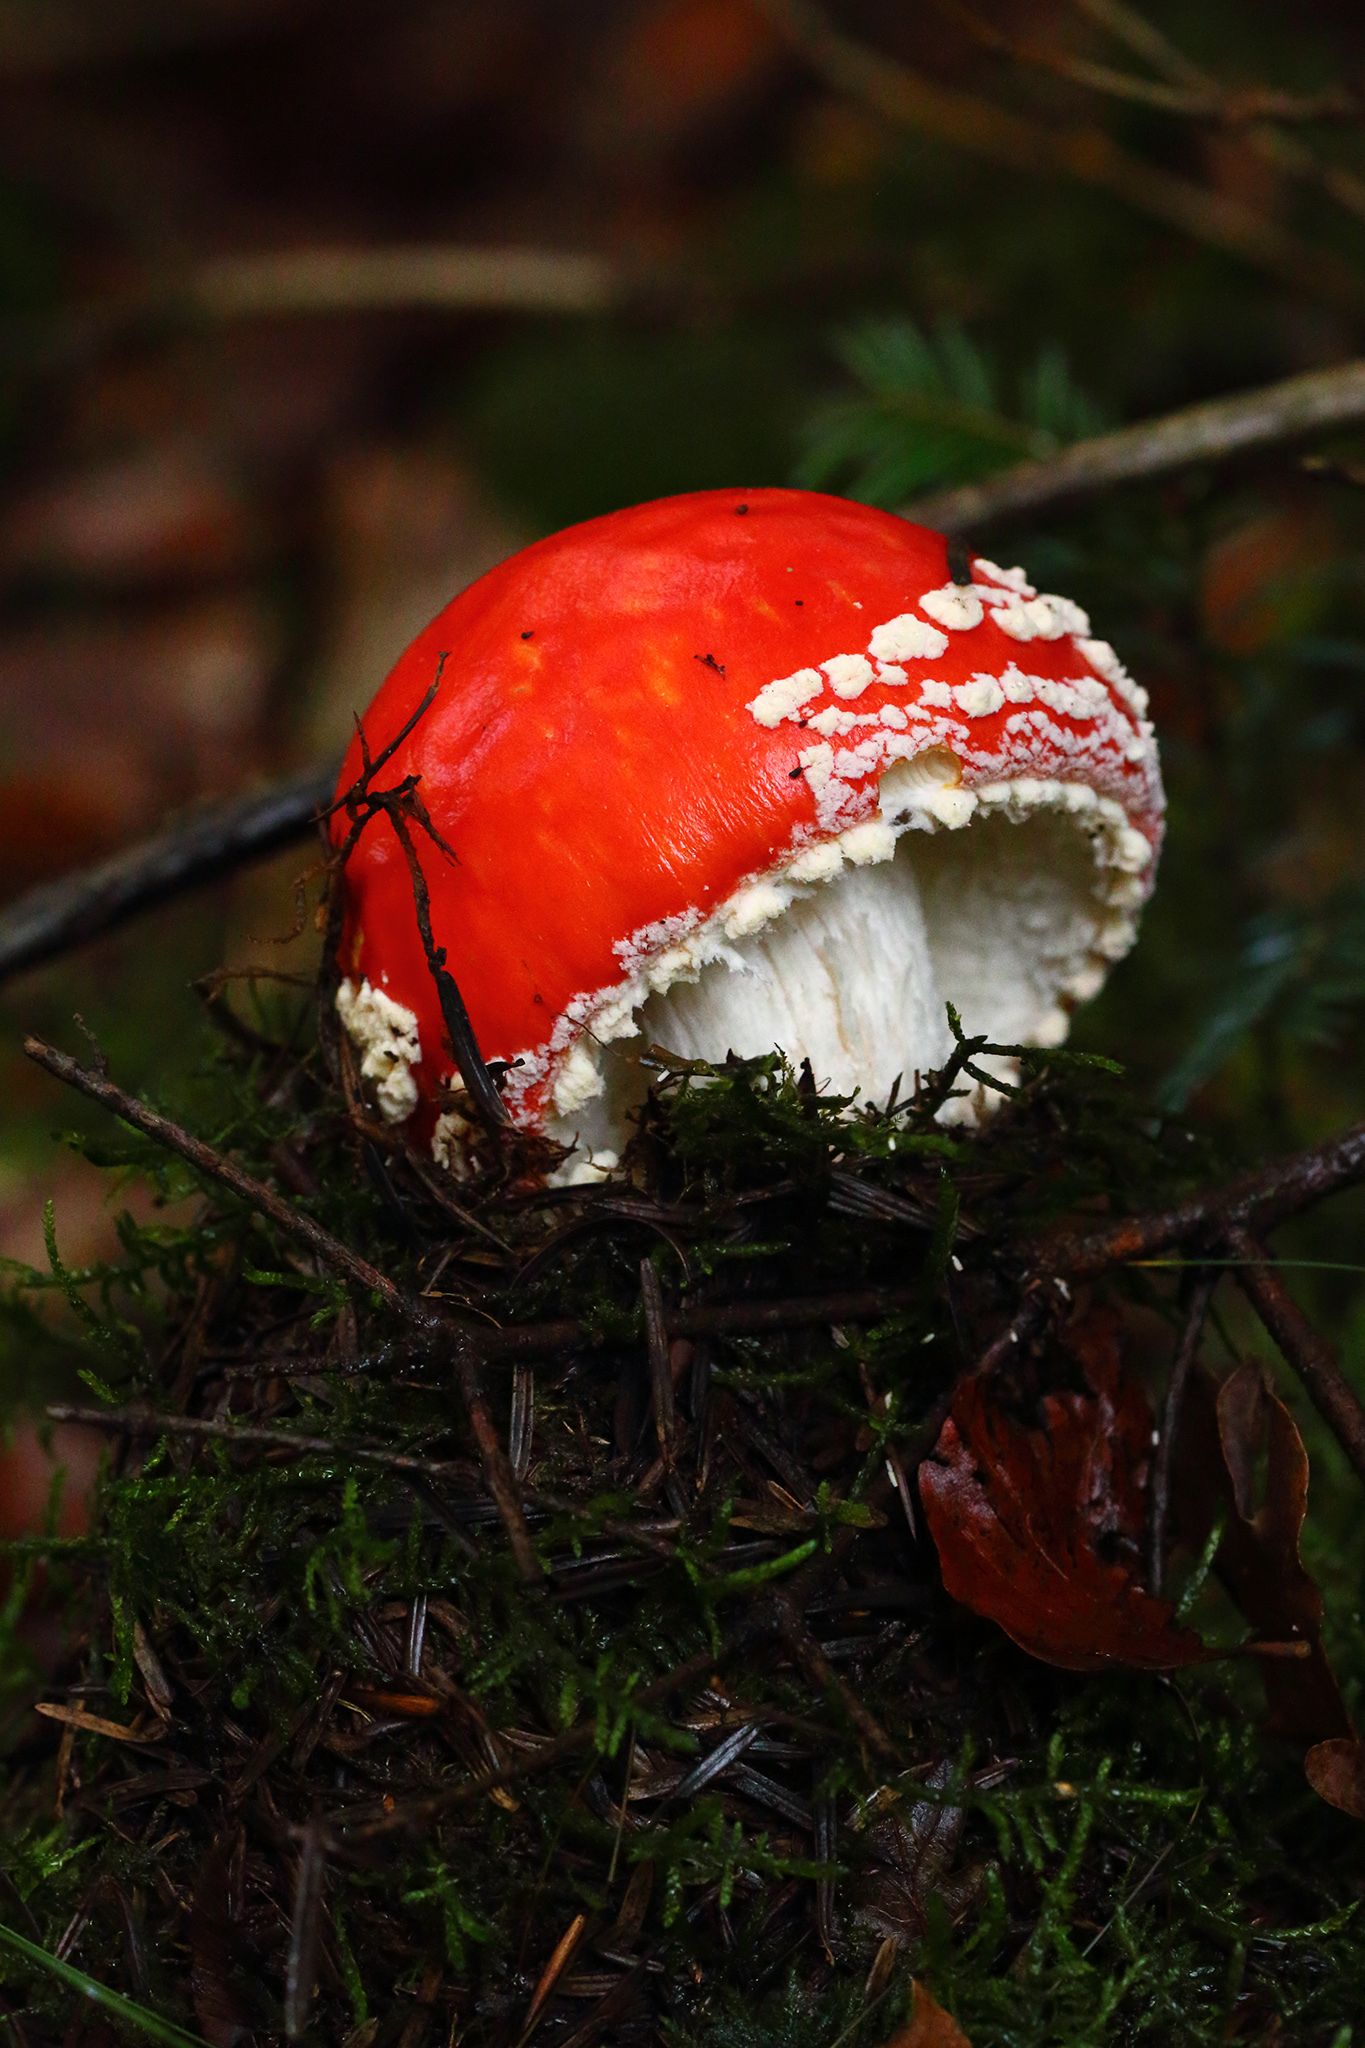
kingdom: Fungi
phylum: Basidiomycota
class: Agaricomycetes
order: Agaricales
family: Amanitaceae
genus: Amanita
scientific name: Amanita muscaria
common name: Fly agaric
